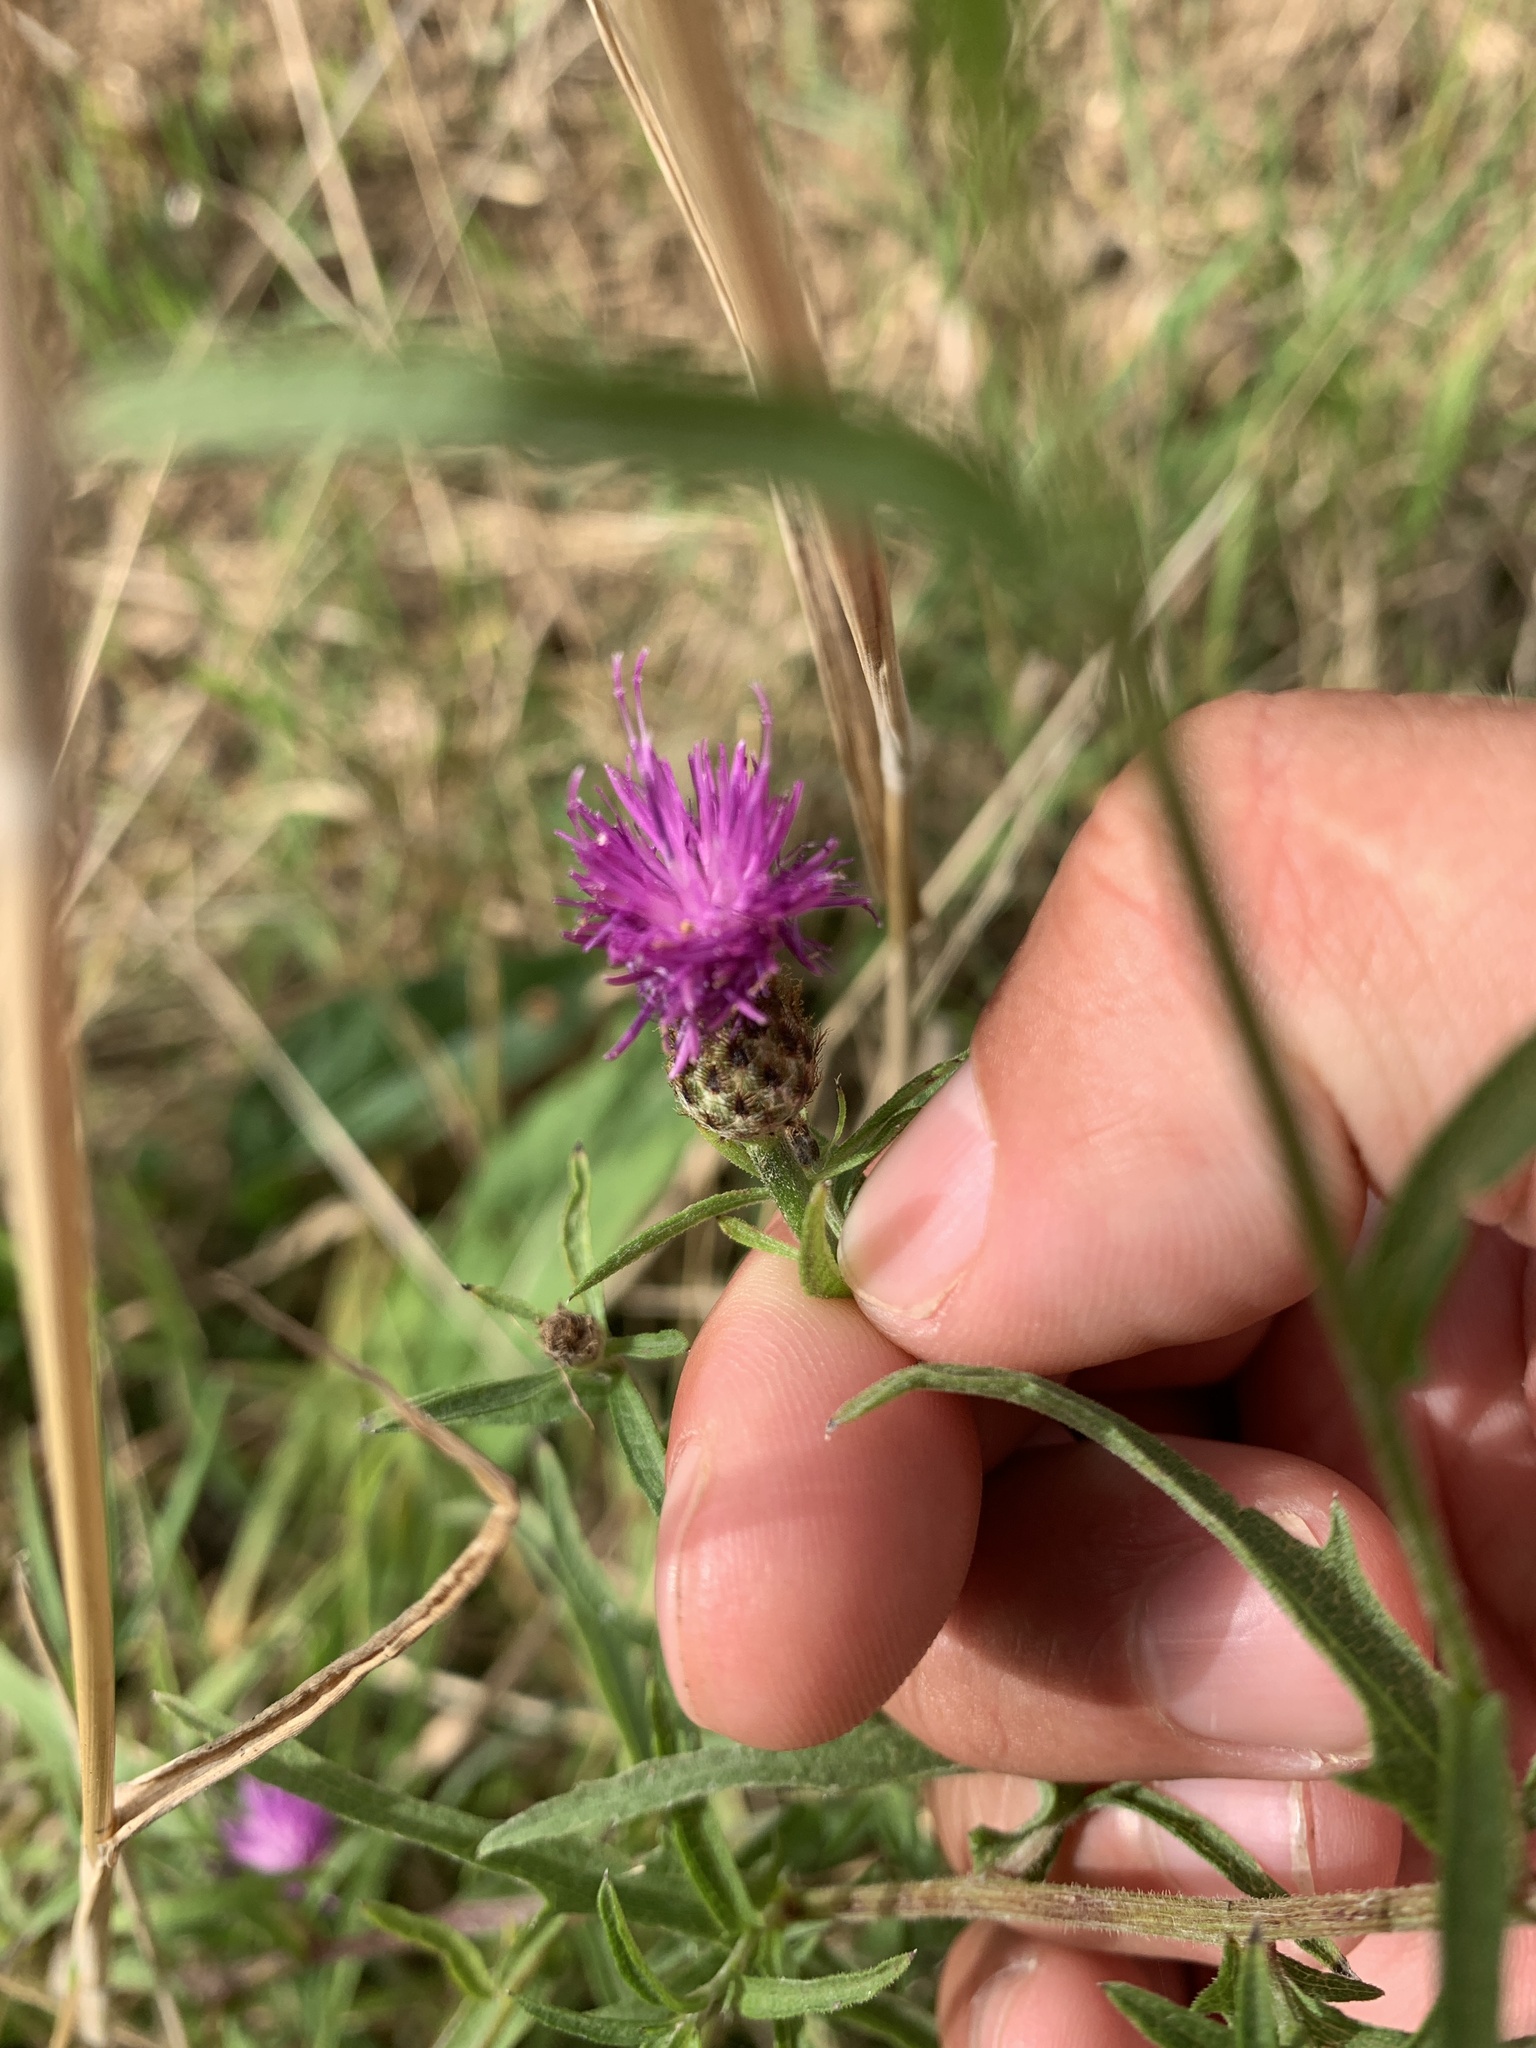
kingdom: Plantae
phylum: Tracheophyta
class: Magnoliopsida
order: Asterales
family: Asteraceae
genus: Centaurea
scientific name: Centaurea nigra
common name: Lesser knapweed
